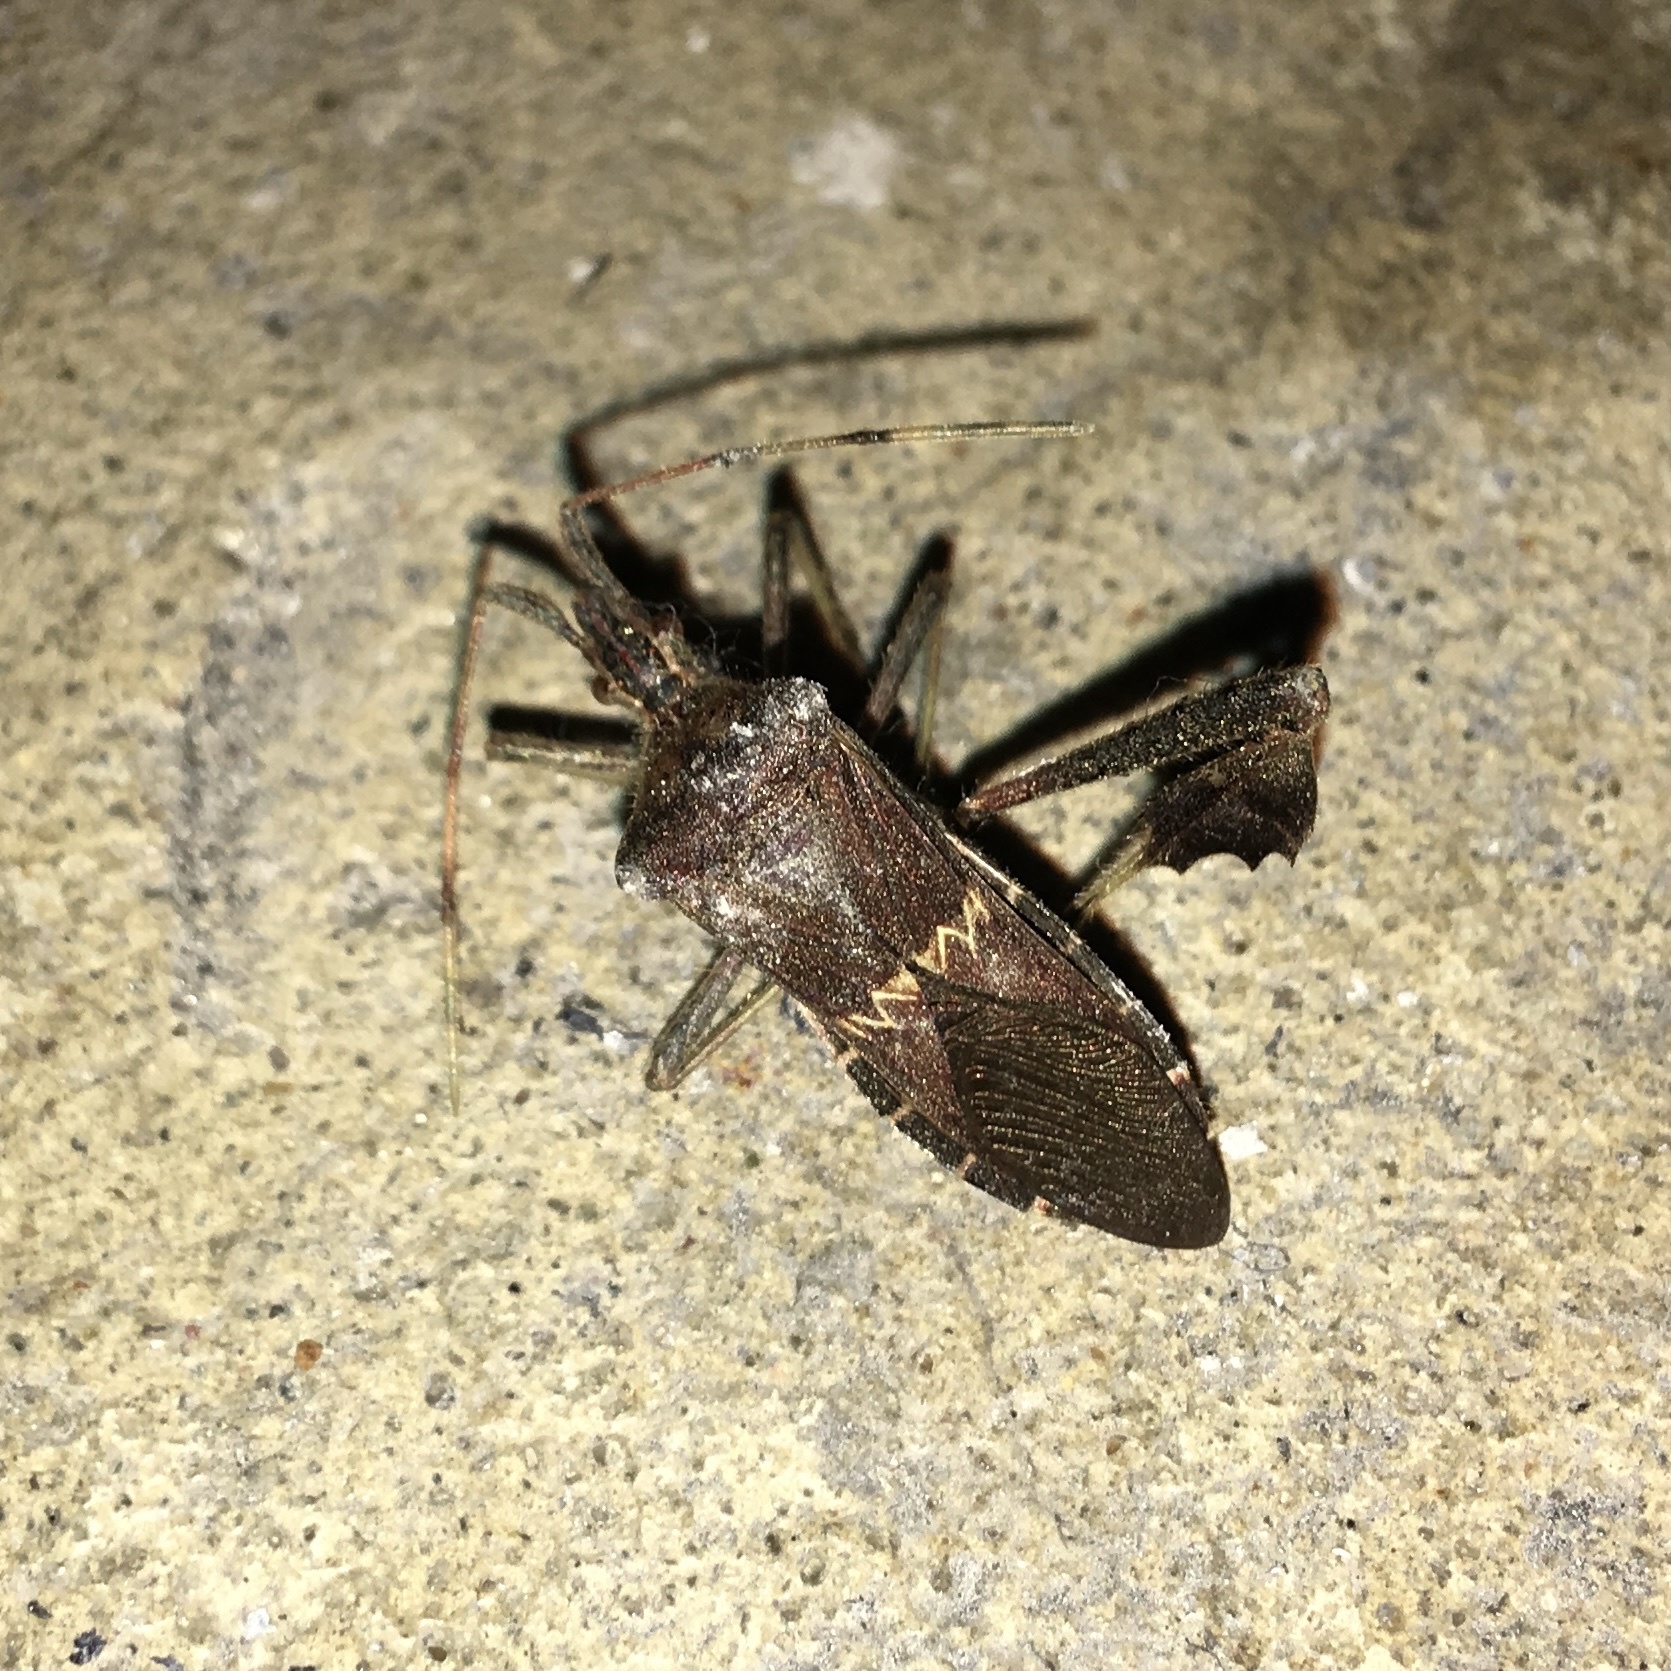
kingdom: Animalia
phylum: Arthropoda
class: Insecta
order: Hemiptera
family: Coreidae
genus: Leptoglossus
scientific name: Leptoglossus zonatus
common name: Large-legged bug
